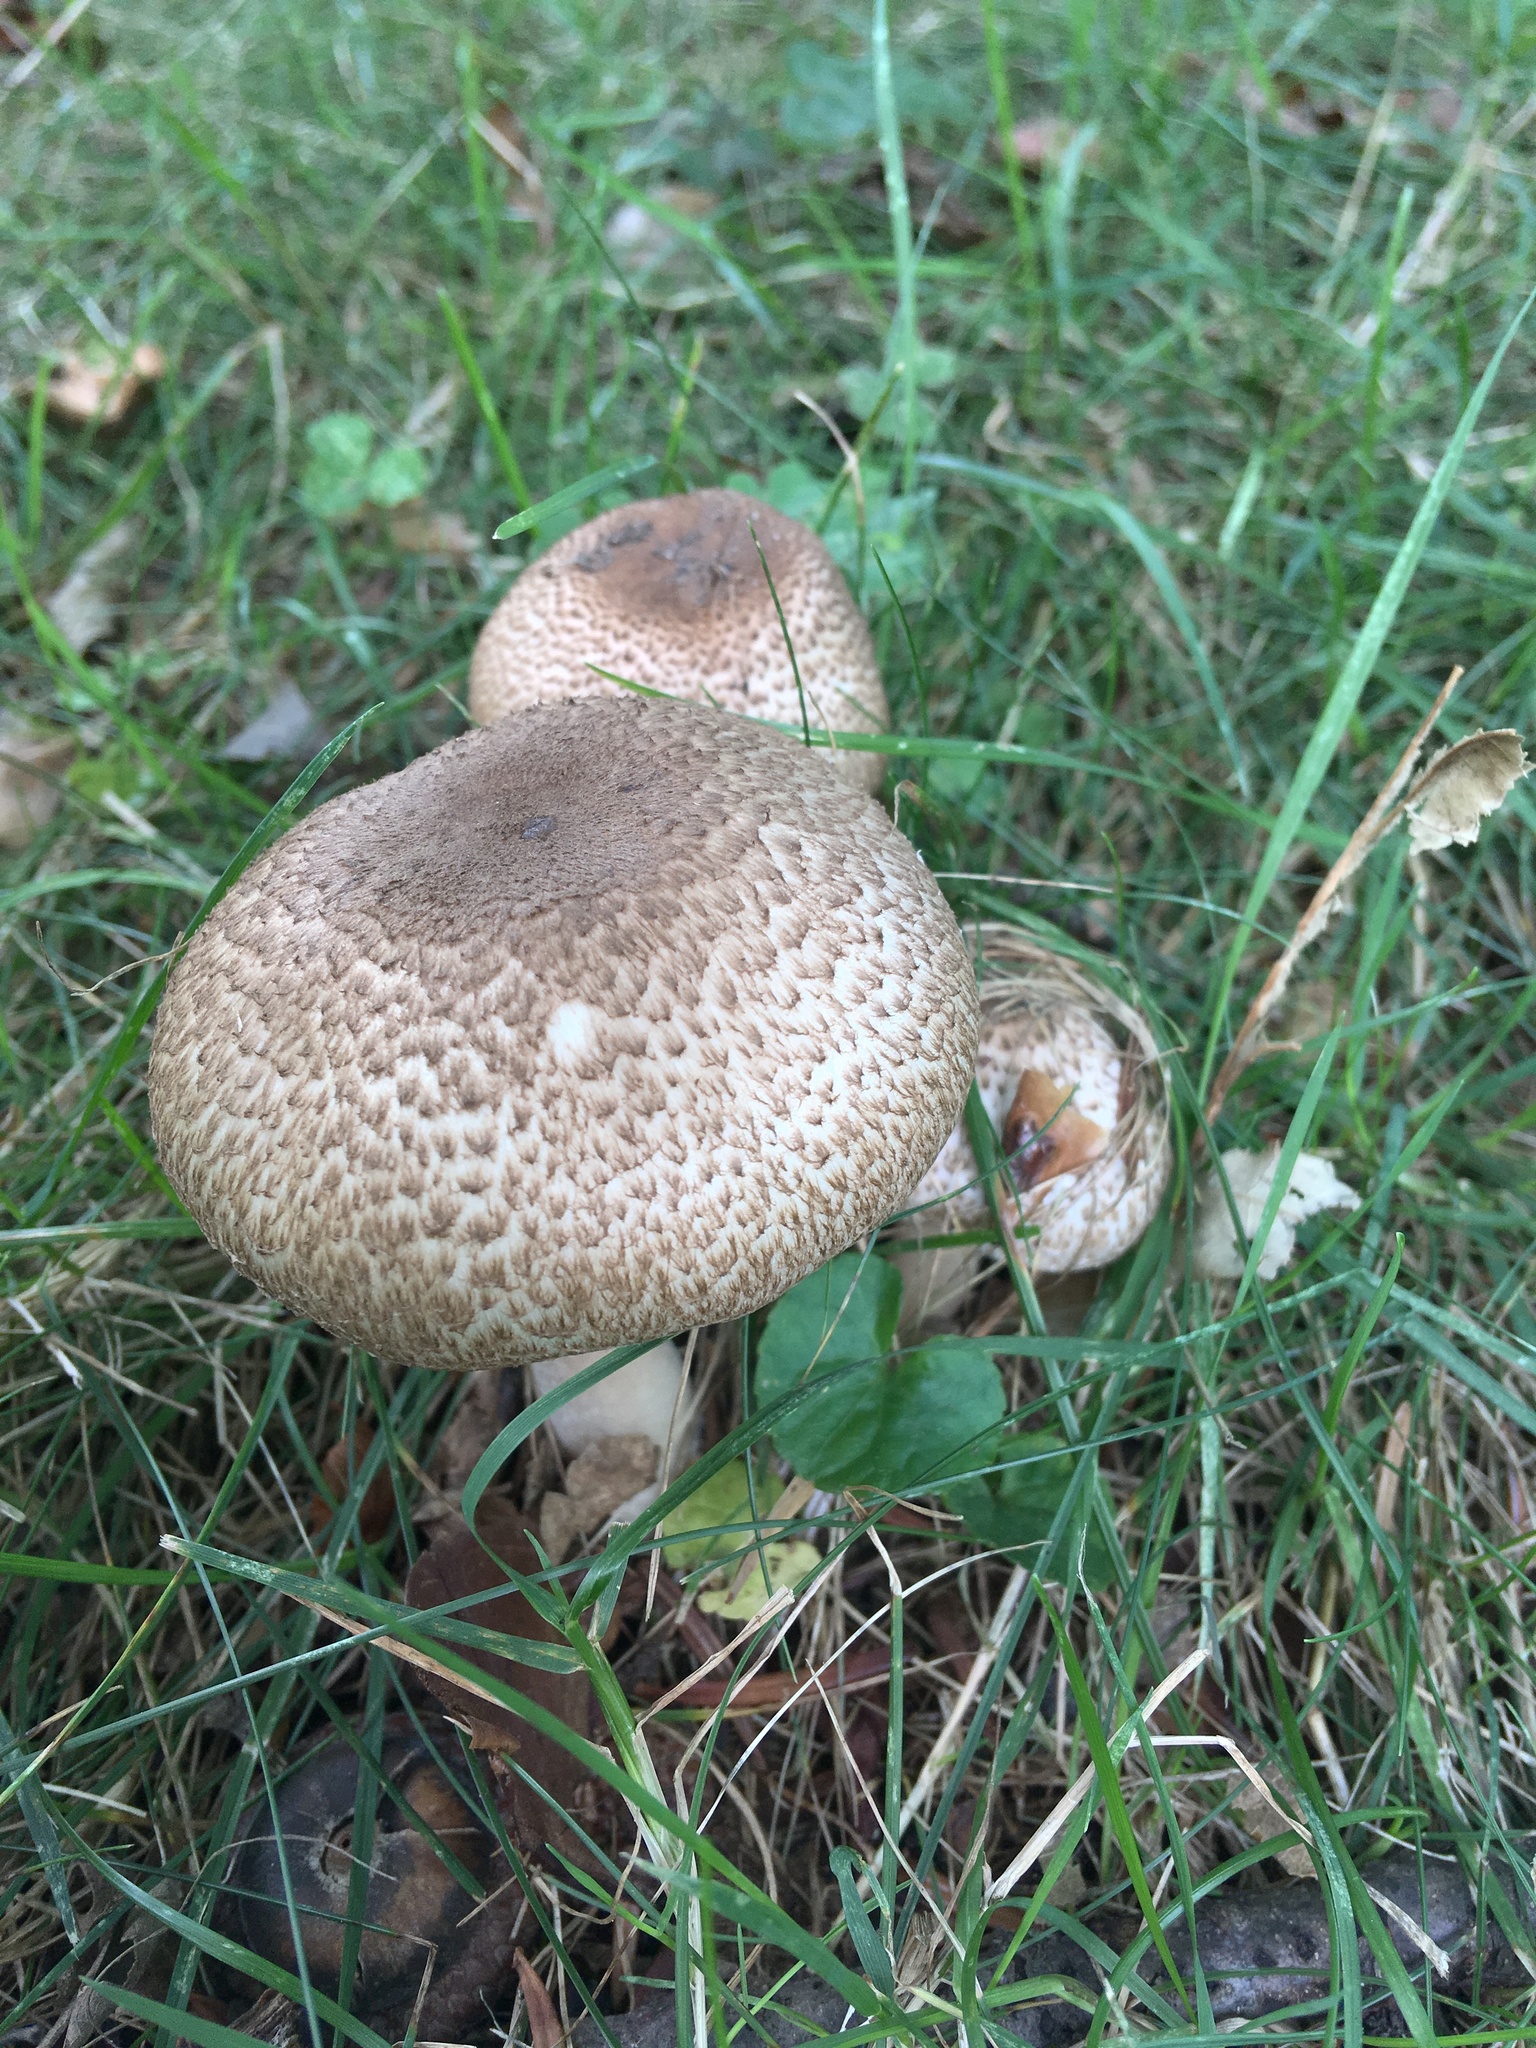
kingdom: Fungi
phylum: Basidiomycota
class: Agaricomycetes
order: Agaricales
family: Agaricaceae
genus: Agaricus
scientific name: Agaricus sylvaticus
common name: Blushing wood mushroom
